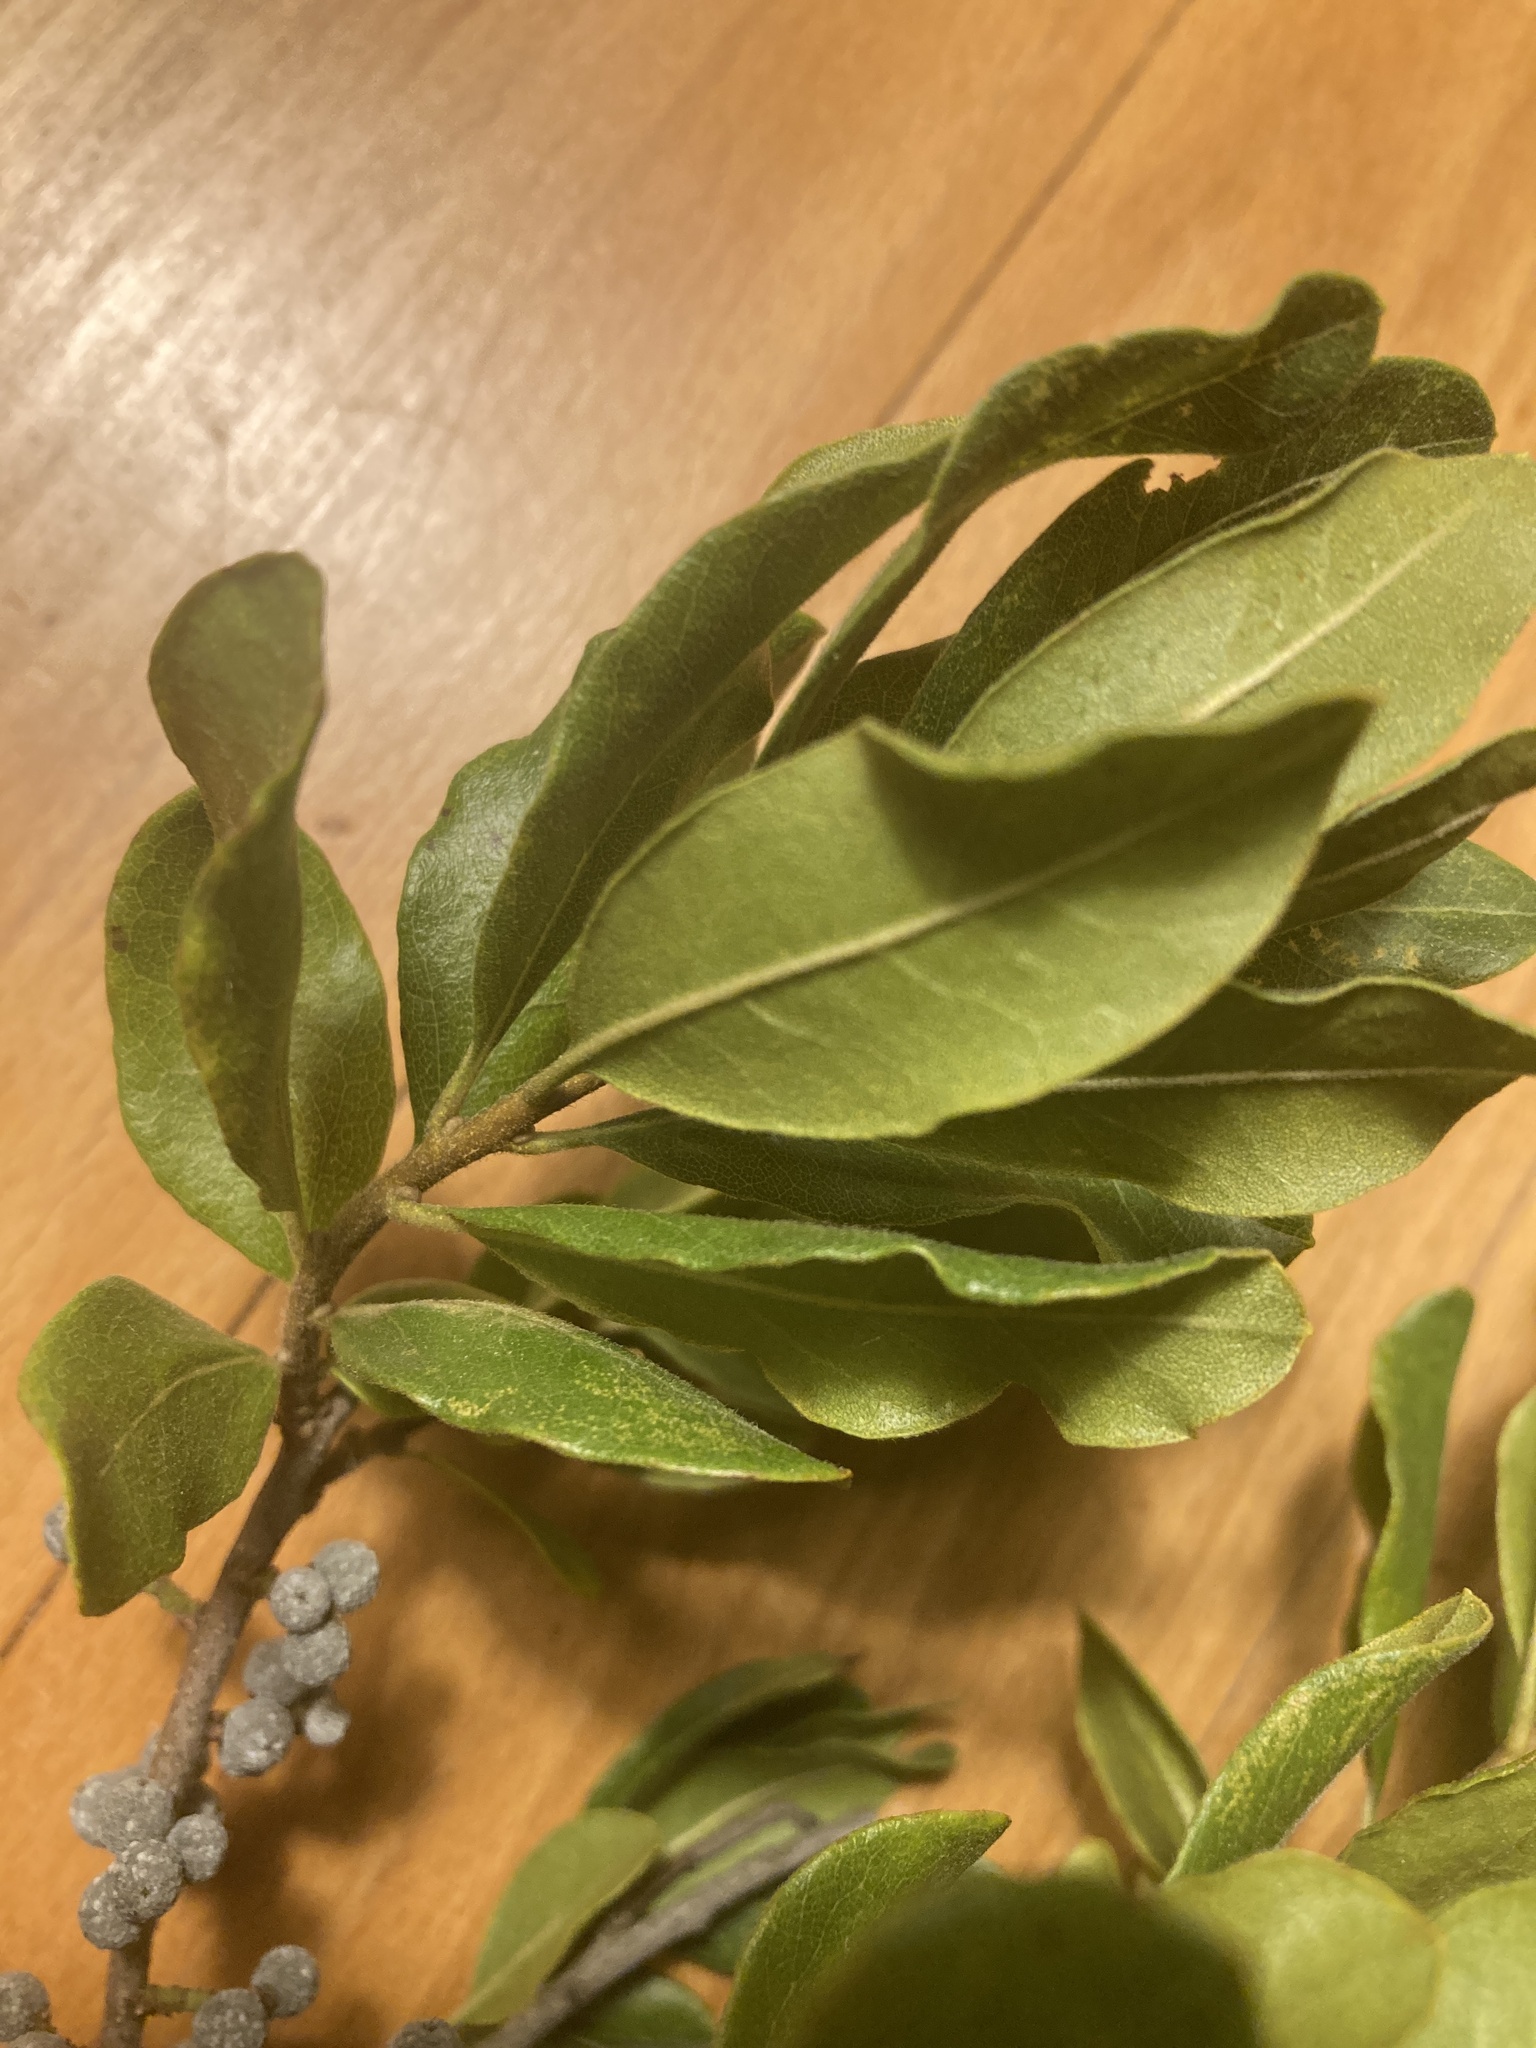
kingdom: Plantae
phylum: Tracheophyta
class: Magnoliopsida
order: Fagales
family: Myricaceae
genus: Morella
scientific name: Morella pensylvanica
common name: Northern bayberry
